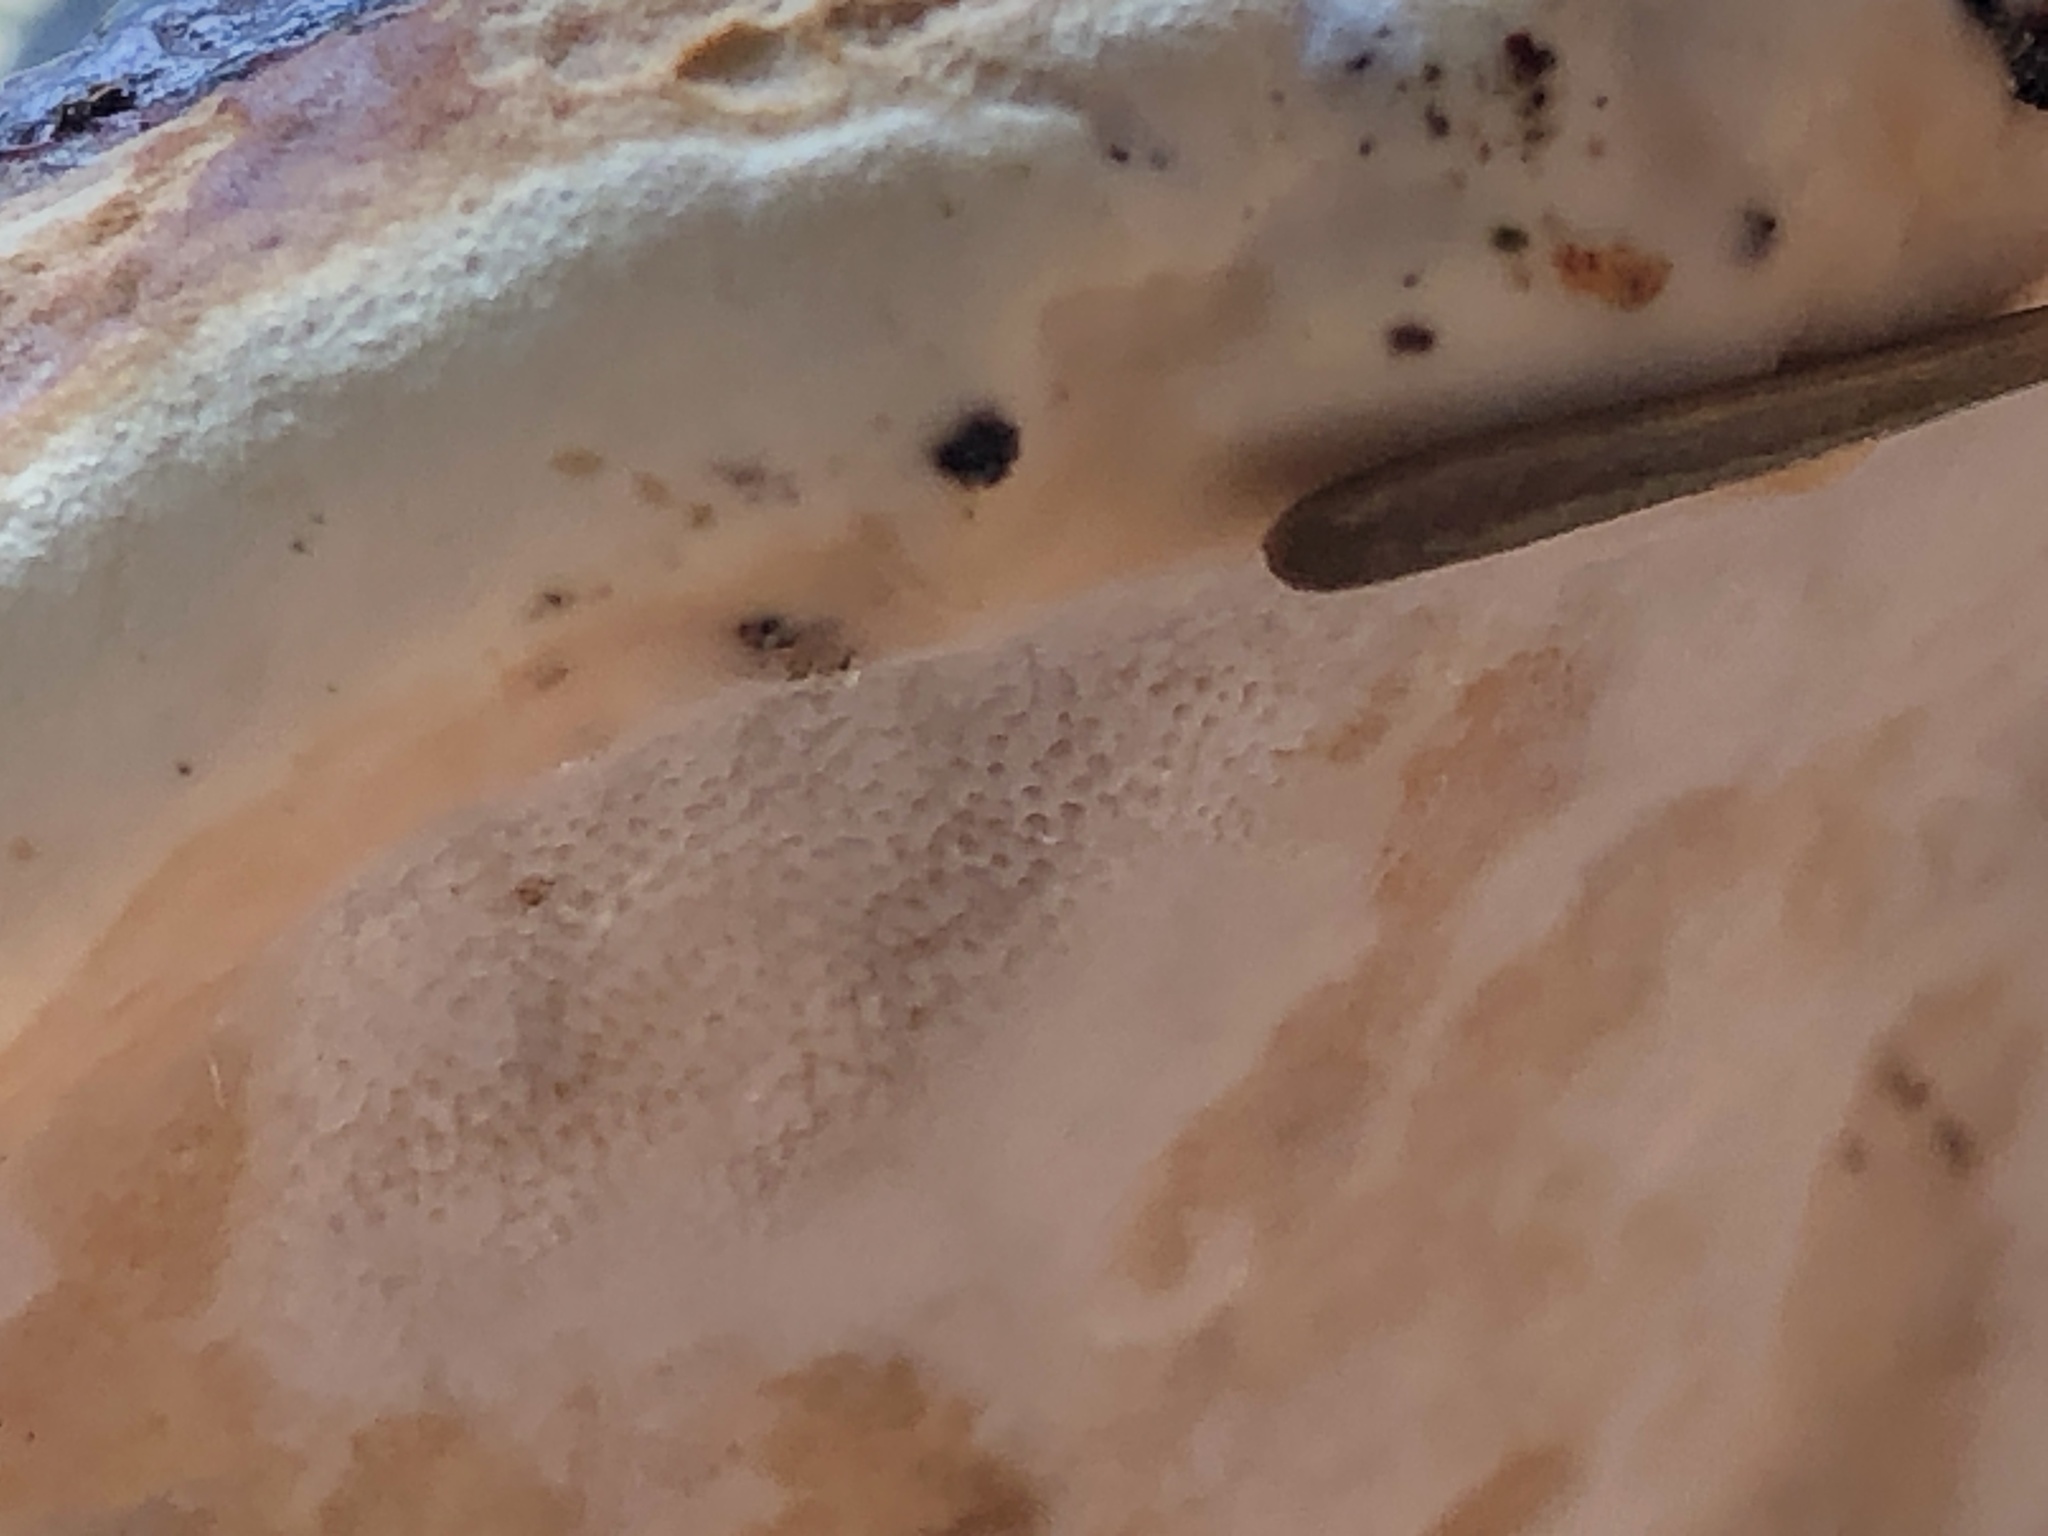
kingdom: Fungi
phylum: Basidiomycota
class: Agaricomycetes
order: Polyporales
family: Fomitopsidaceae
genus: Fomitopsis
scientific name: Fomitopsis mounceae
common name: Northern red belt
